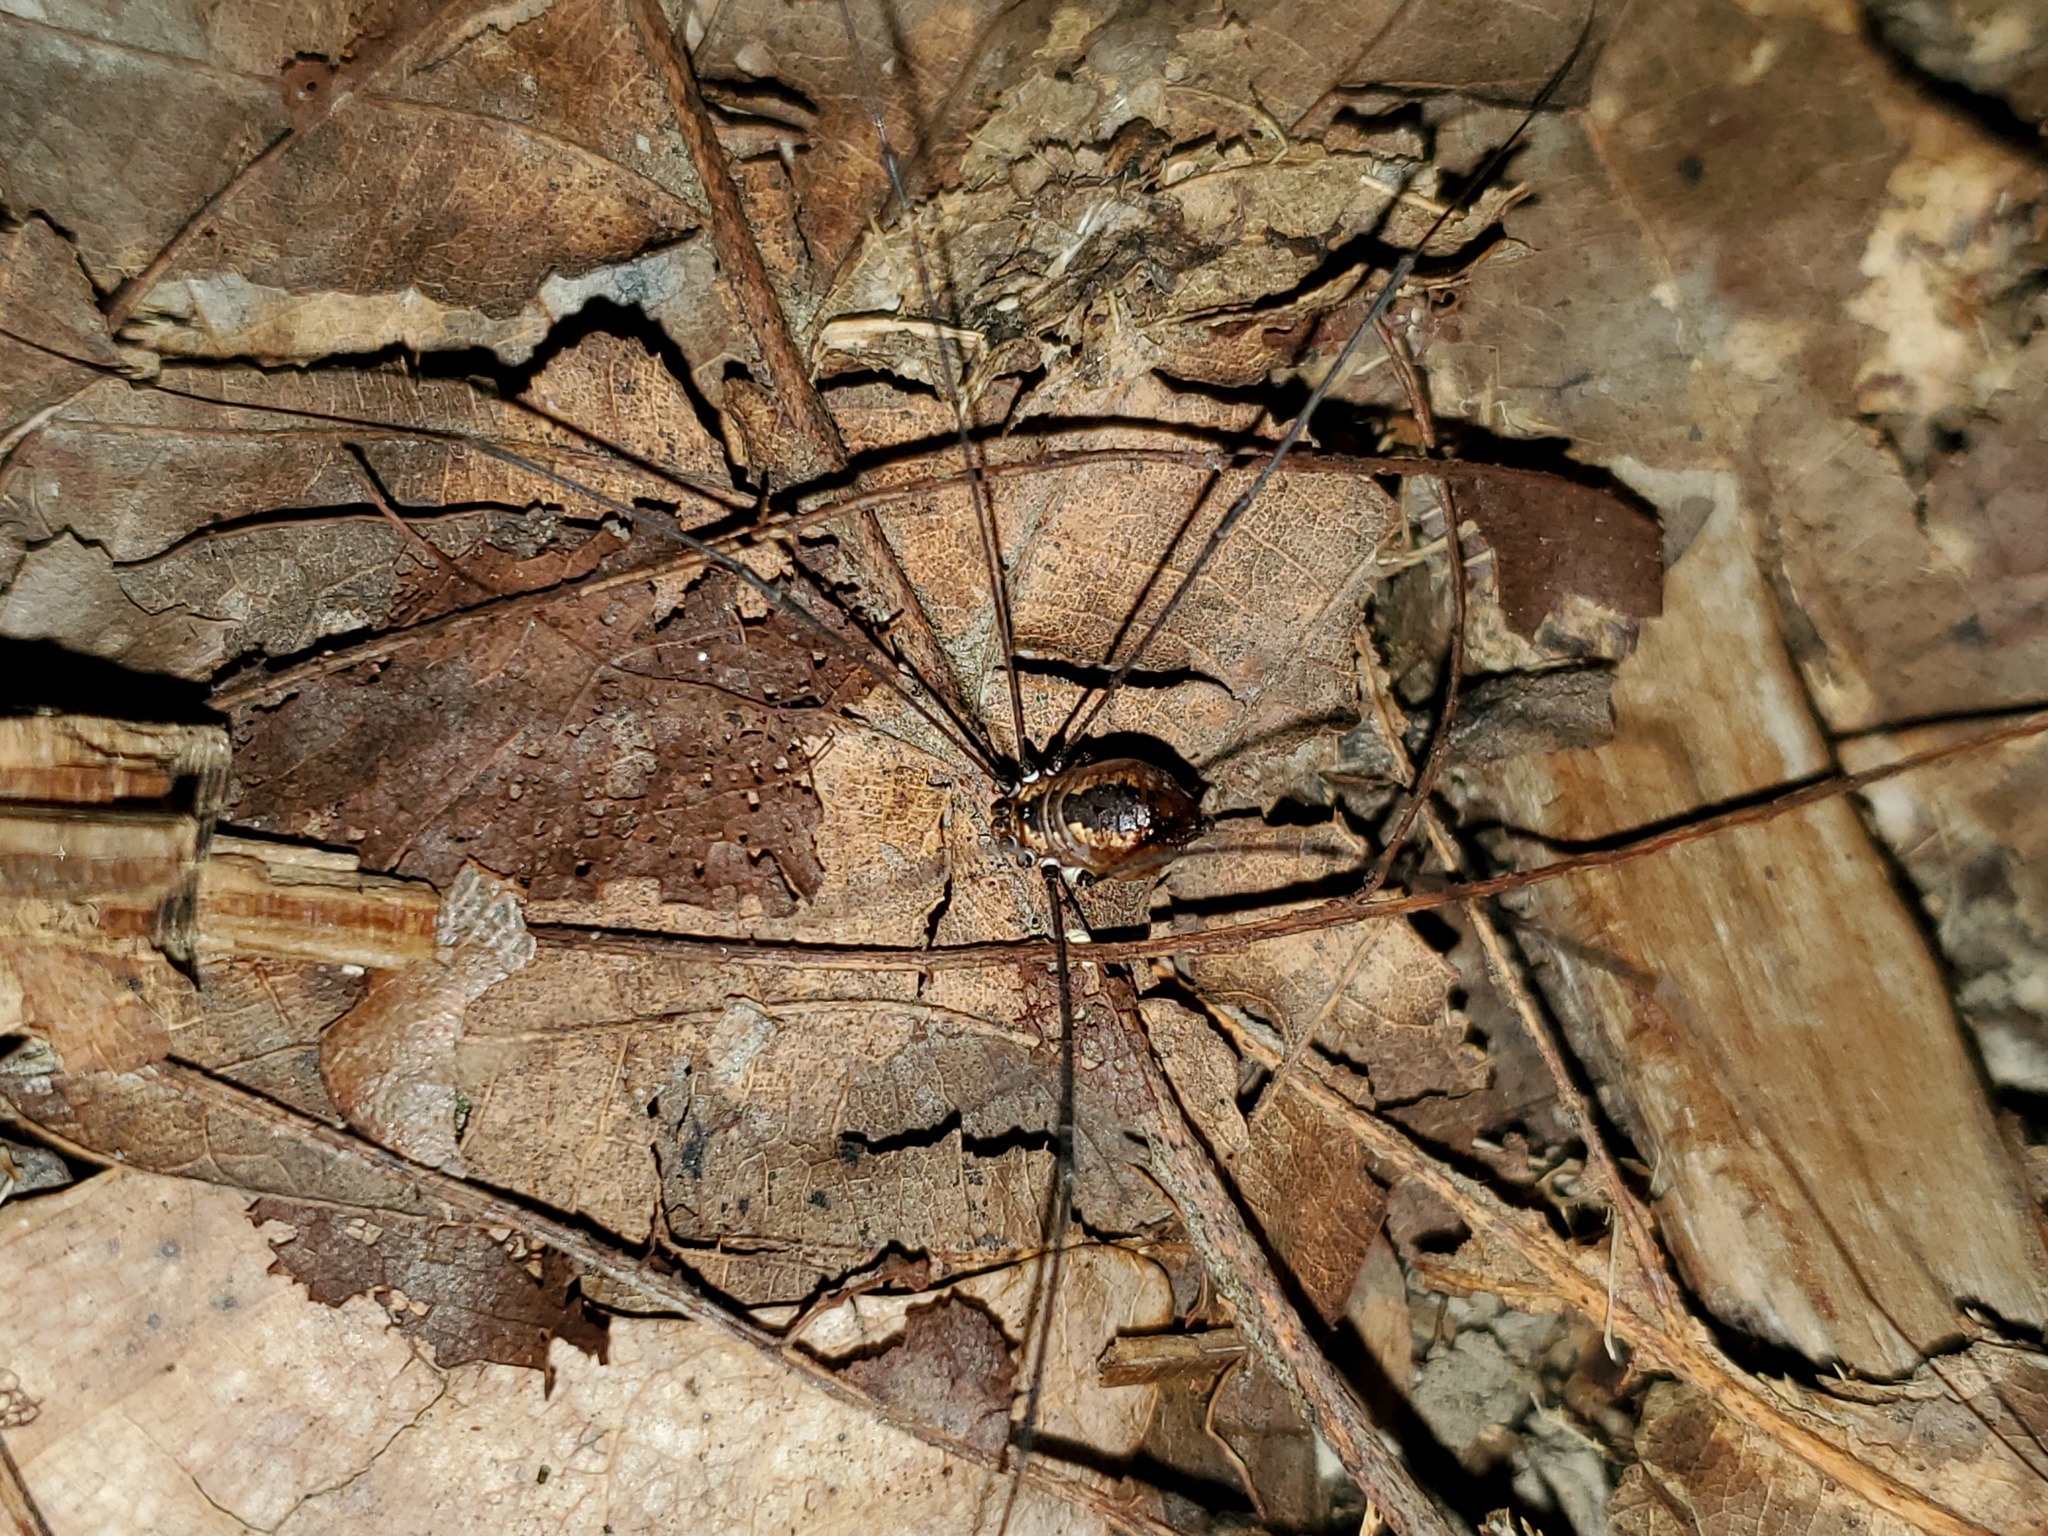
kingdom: Animalia
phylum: Arthropoda
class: Arachnida
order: Opiliones
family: Sclerosomatidae
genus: Leiobunum
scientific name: Leiobunum aldrichi
